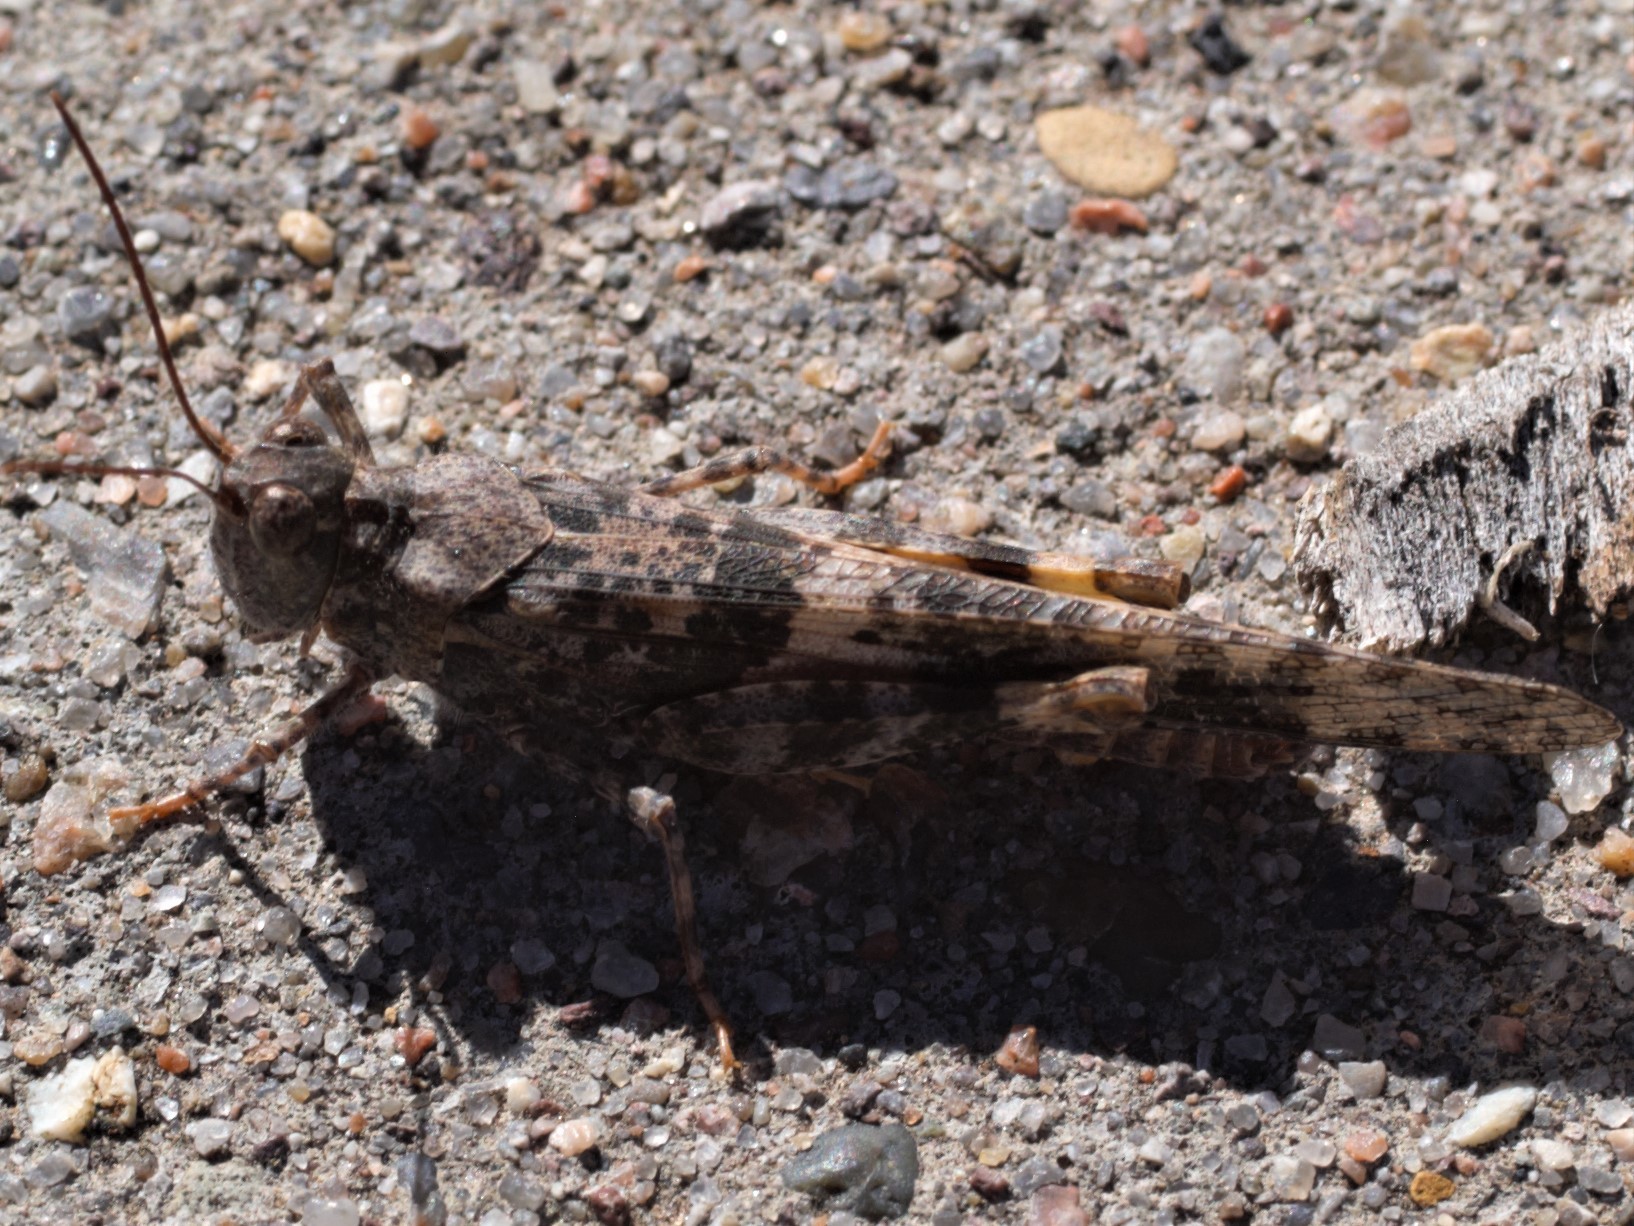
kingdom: Animalia
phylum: Arthropoda
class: Insecta
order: Orthoptera
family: Acrididae
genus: Trimerotropis
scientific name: Trimerotropis pallidipennis
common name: Pallid-winged grasshopper
